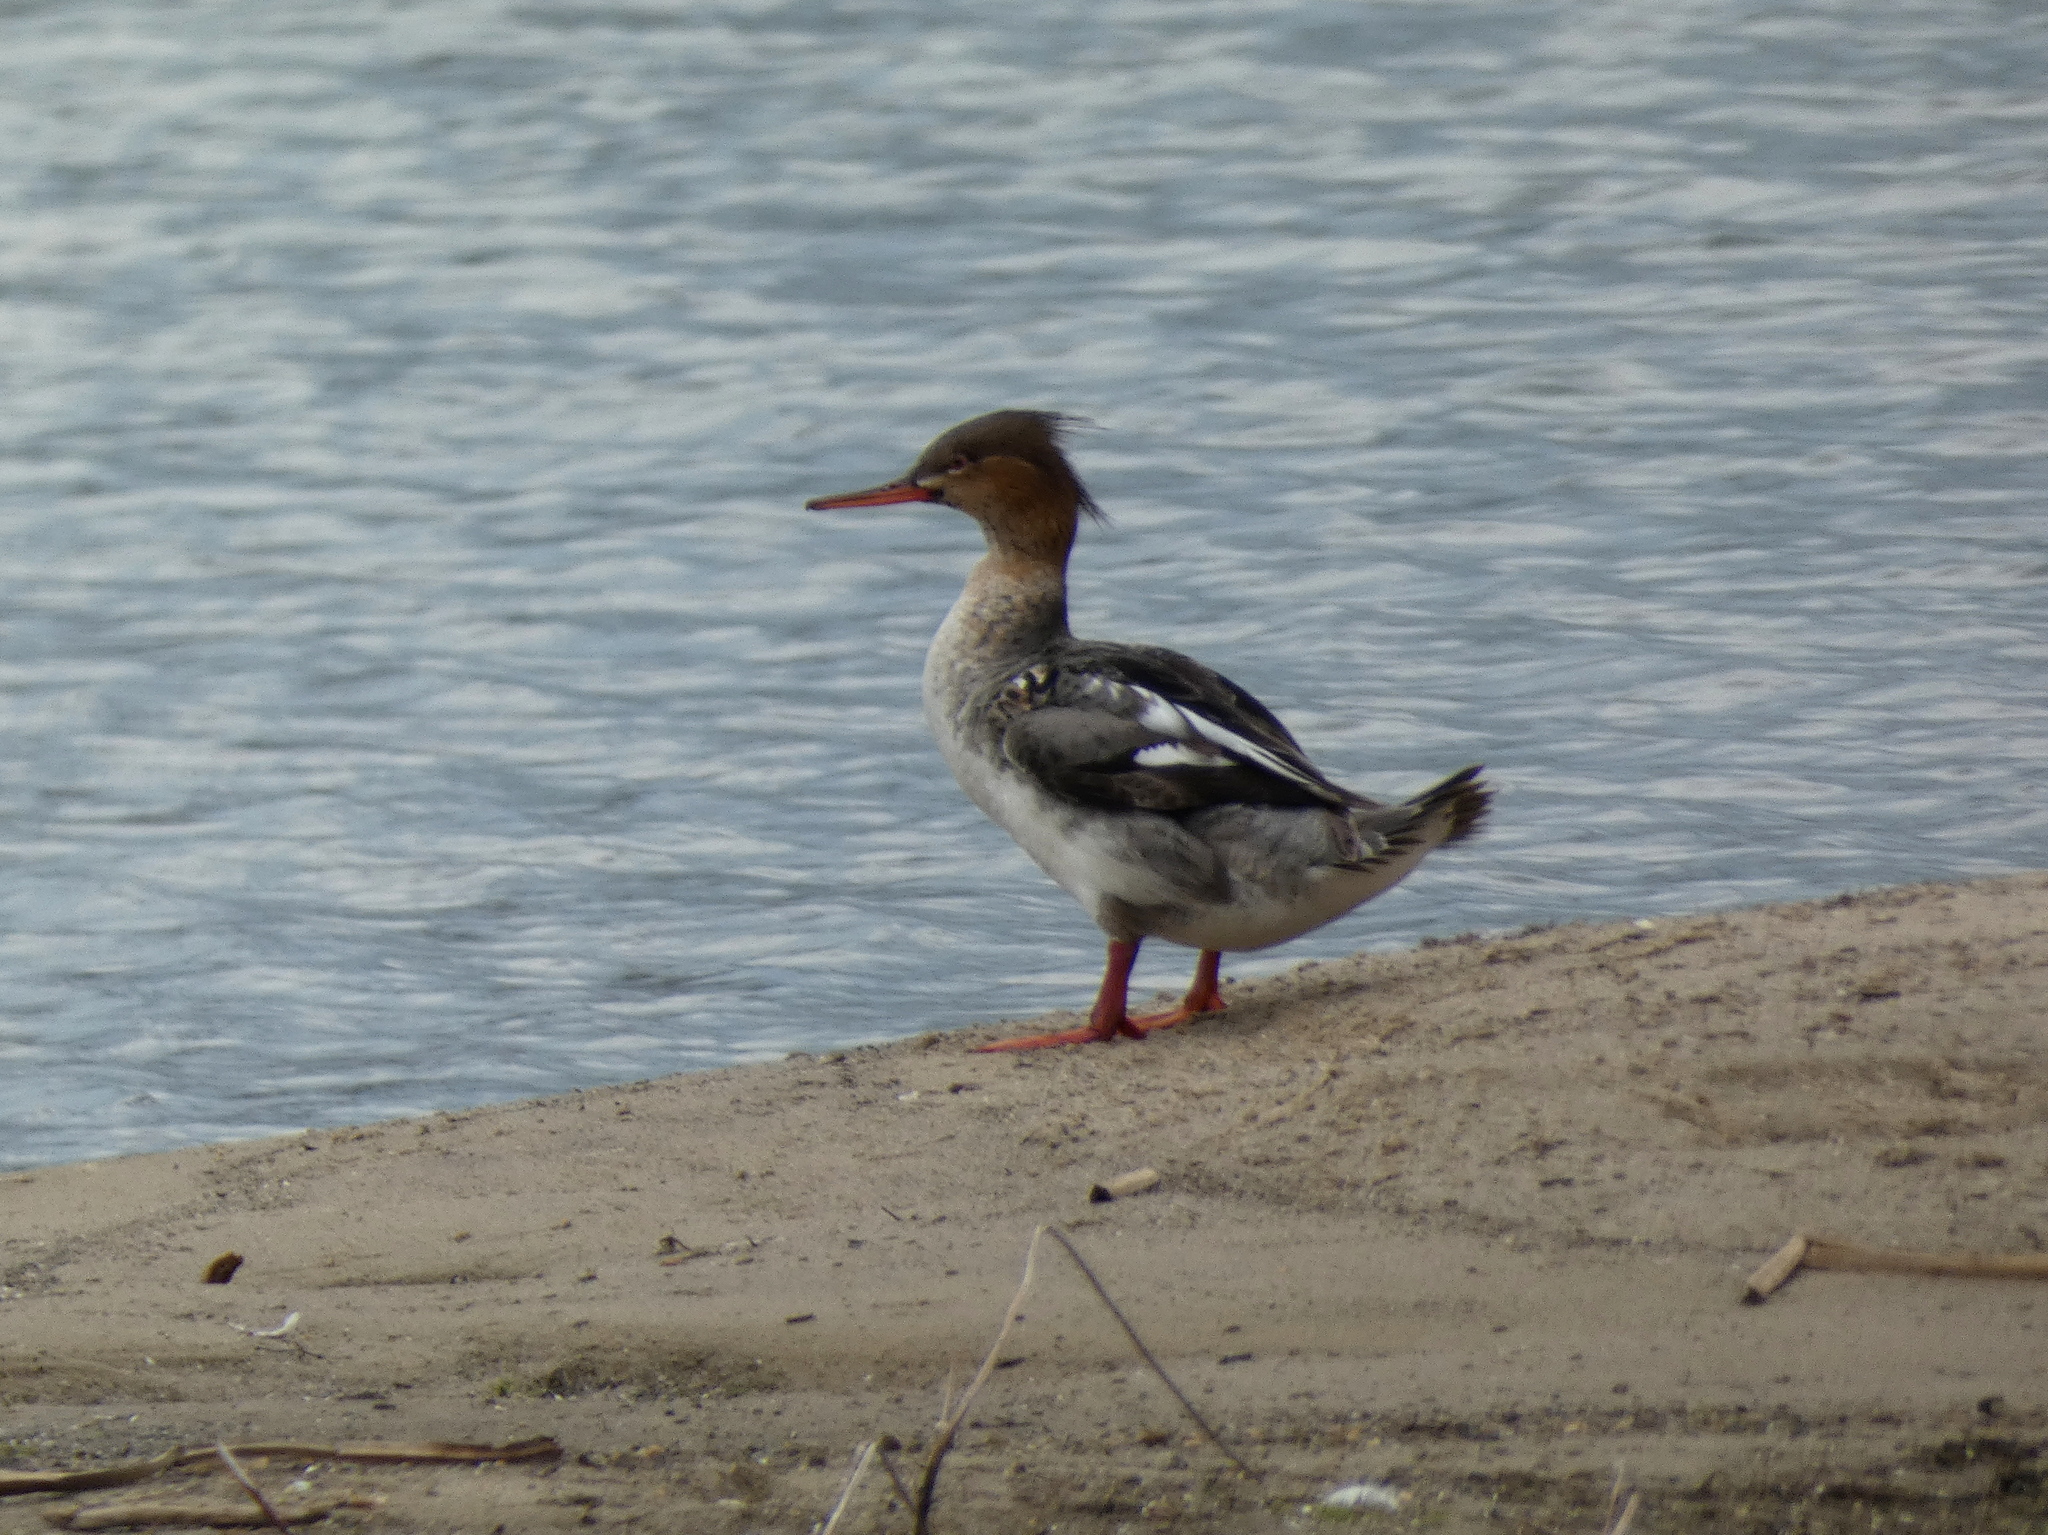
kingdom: Animalia
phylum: Chordata
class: Aves
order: Anseriformes
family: Anatidae
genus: Mergus
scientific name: Mergus serrator
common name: Red-breasted merganser
